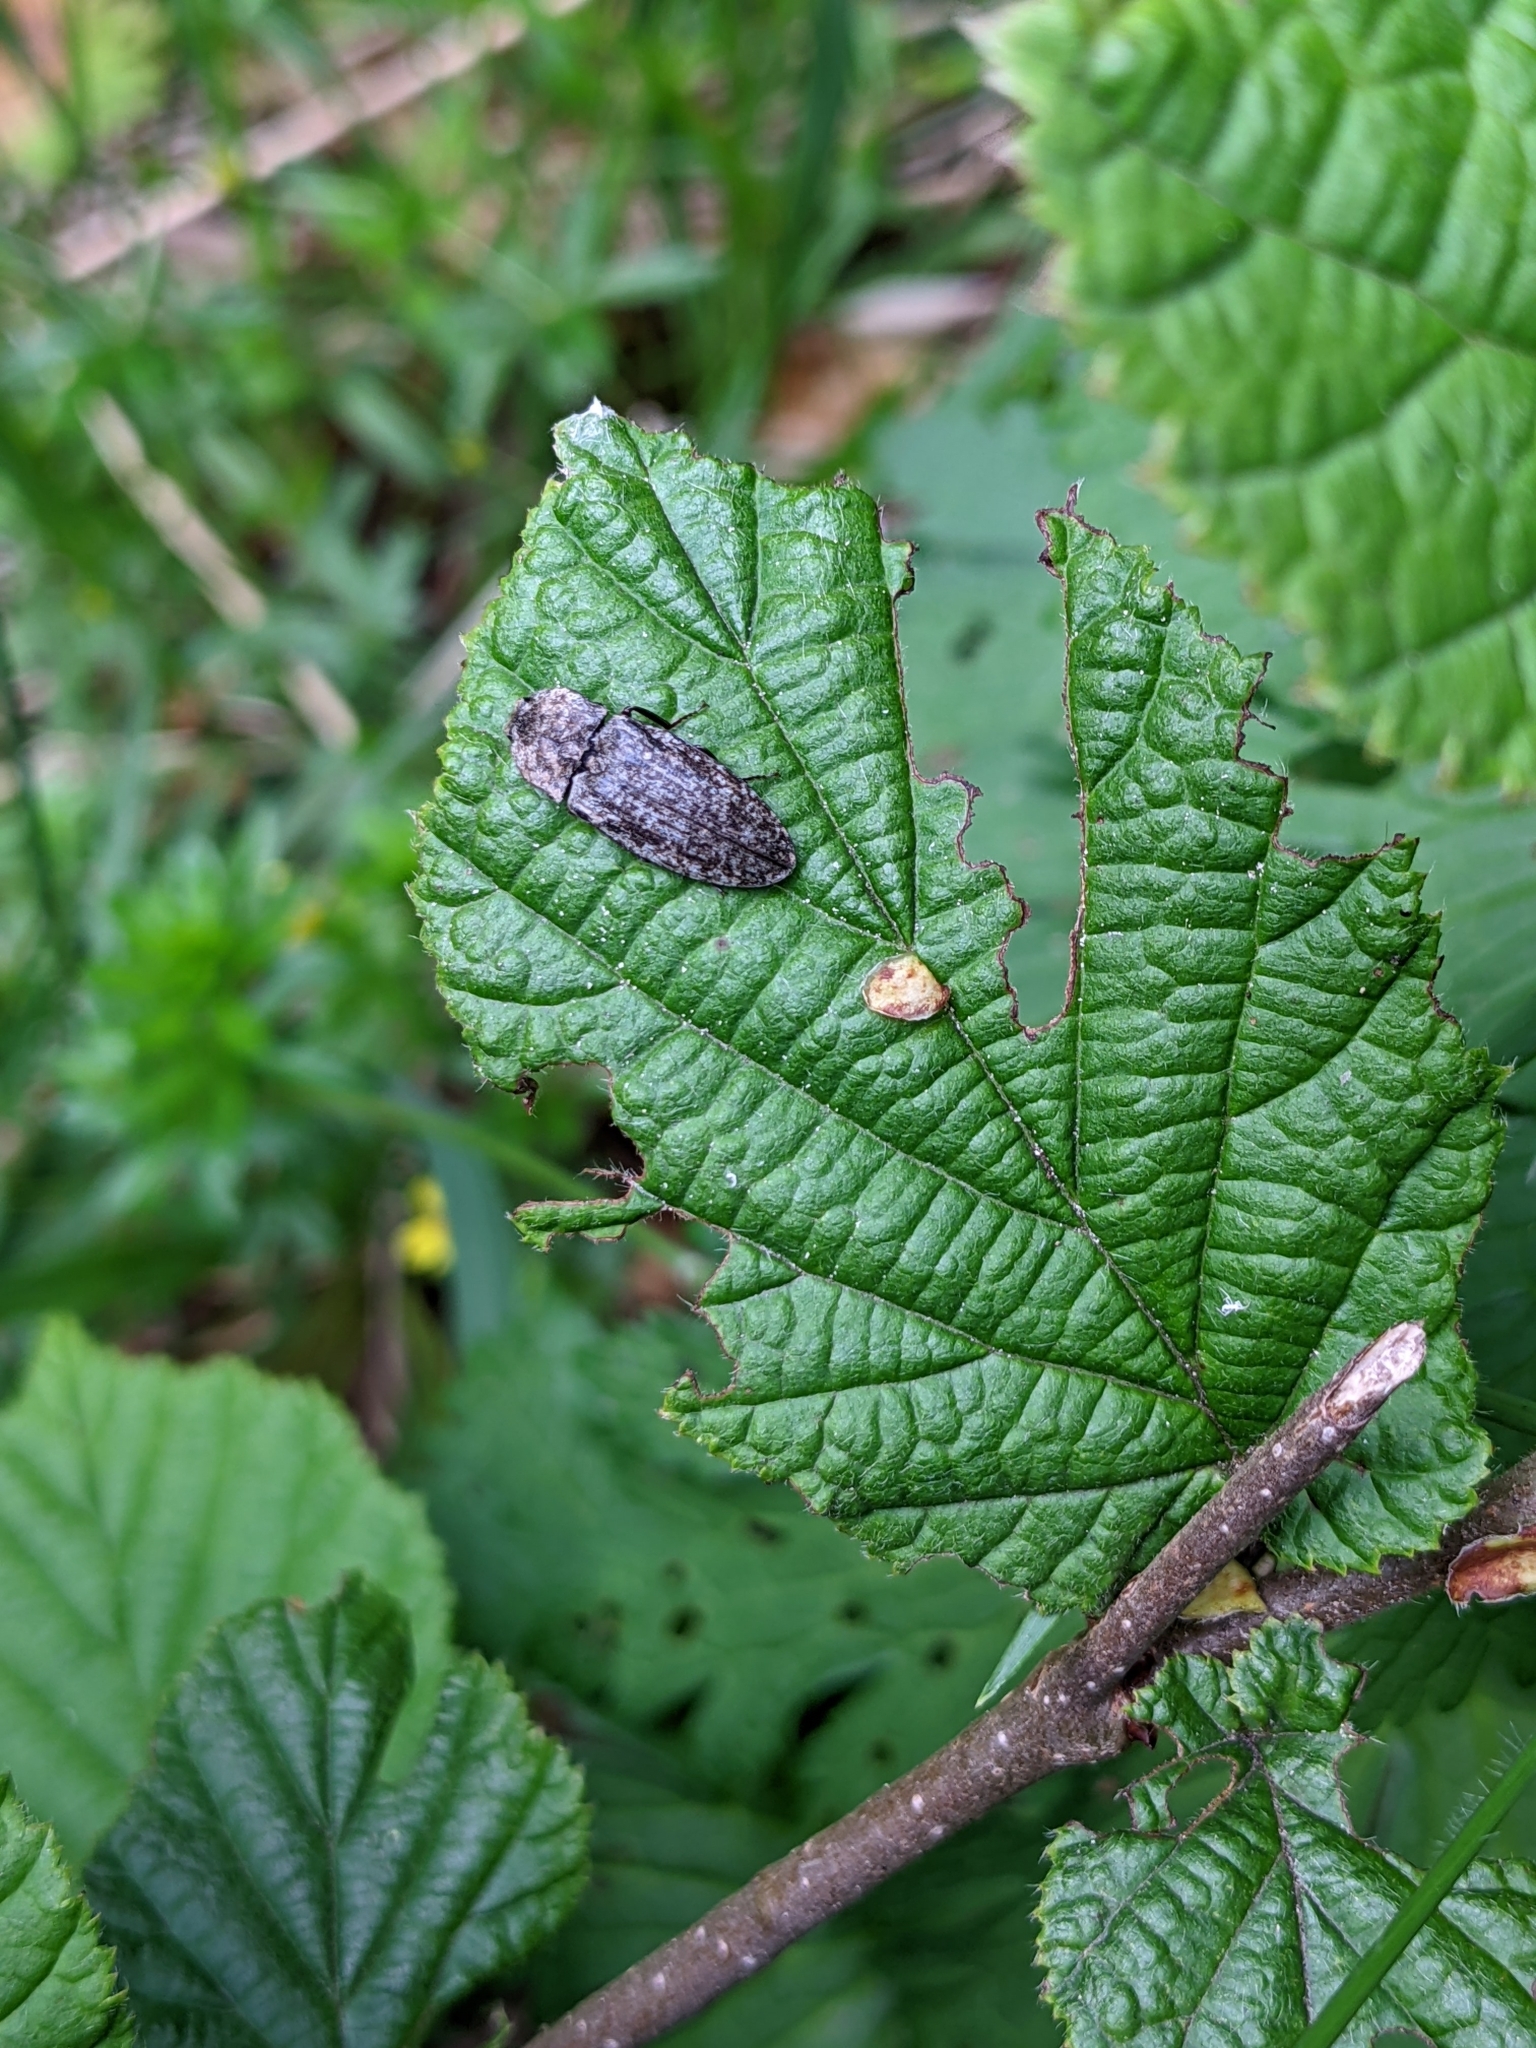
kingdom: Animalia
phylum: Arthropoda
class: Insecta
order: Coleoptera
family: Elateridae
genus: Agrypnus
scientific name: Agrypnus murinus
